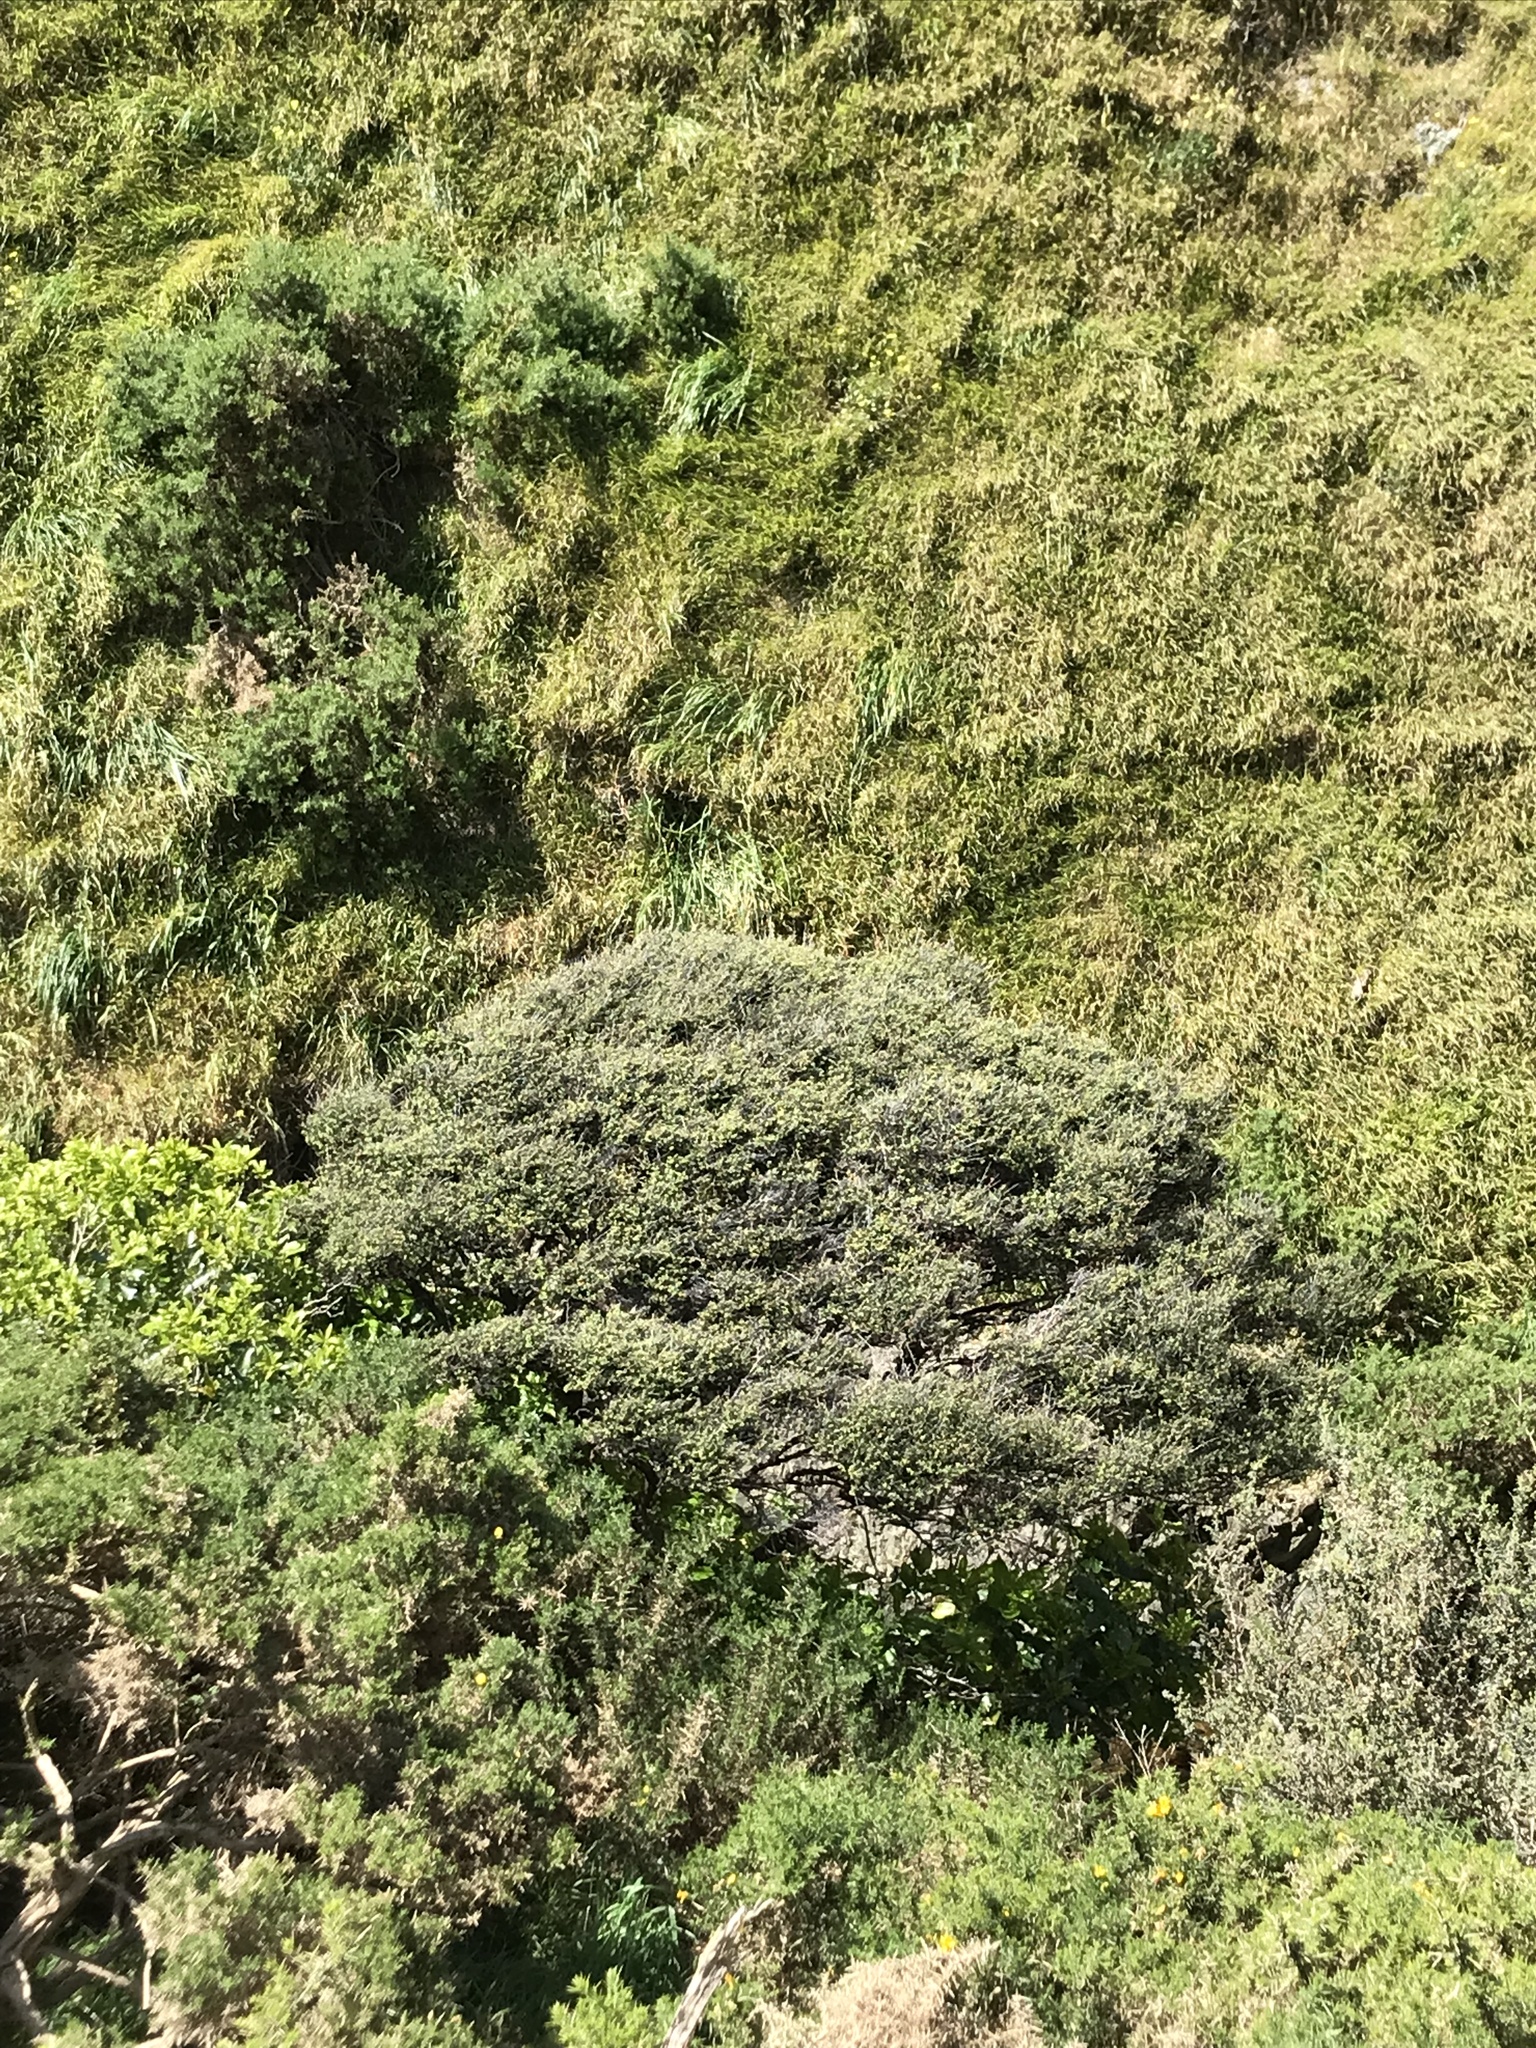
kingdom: Plantae
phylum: Tracheophyta
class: Magnoliopsida
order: Myrtales
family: Myrtaceae
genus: Leptospermum
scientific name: Leptospermum scoparium
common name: Broom tea-tree
